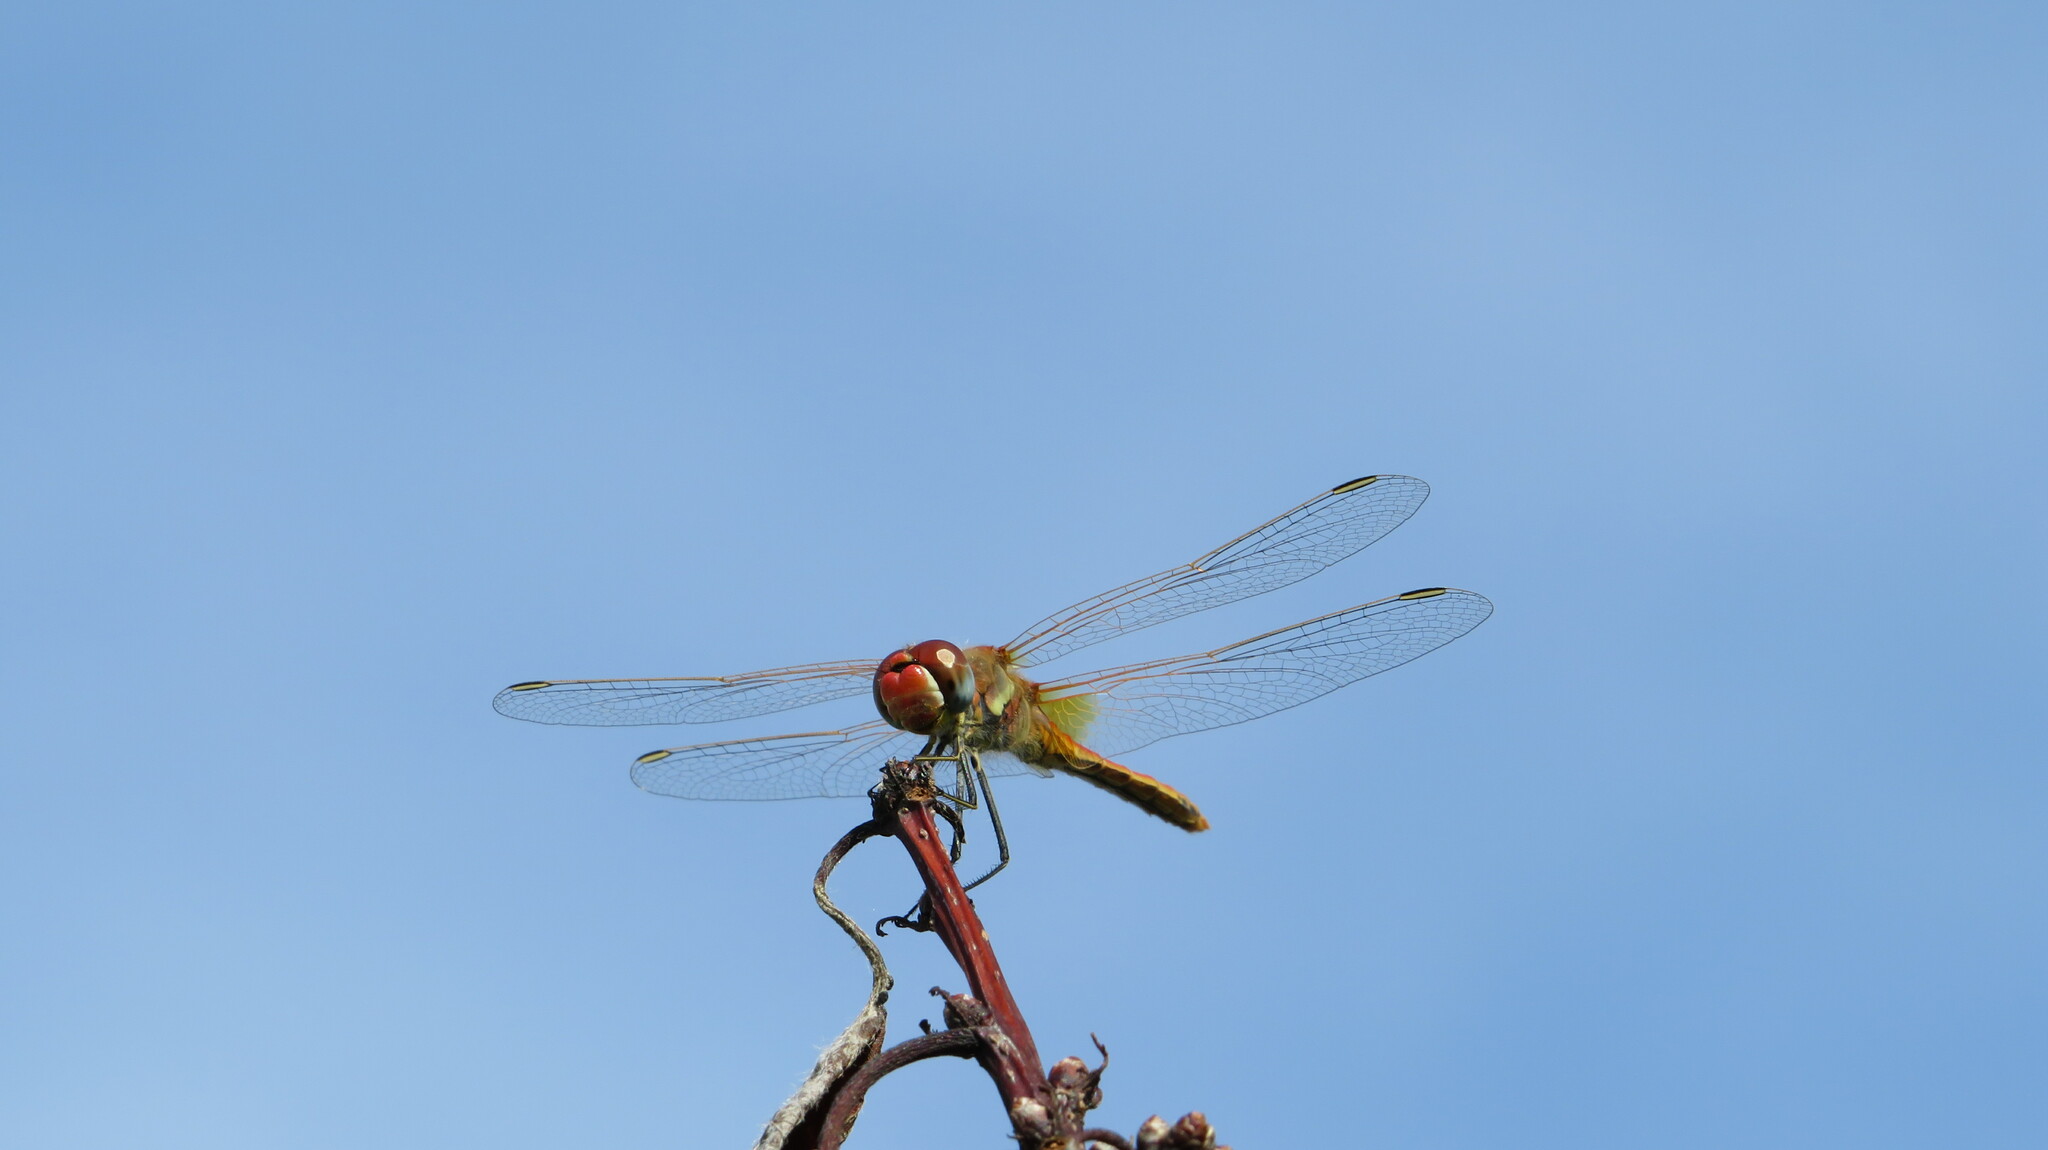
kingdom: Animalia
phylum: Arthropoda
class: Insecta
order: Odonata
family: Libellulidae
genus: Sympetrum
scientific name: Sympetrum fonscolombii
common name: Red-veined darter
